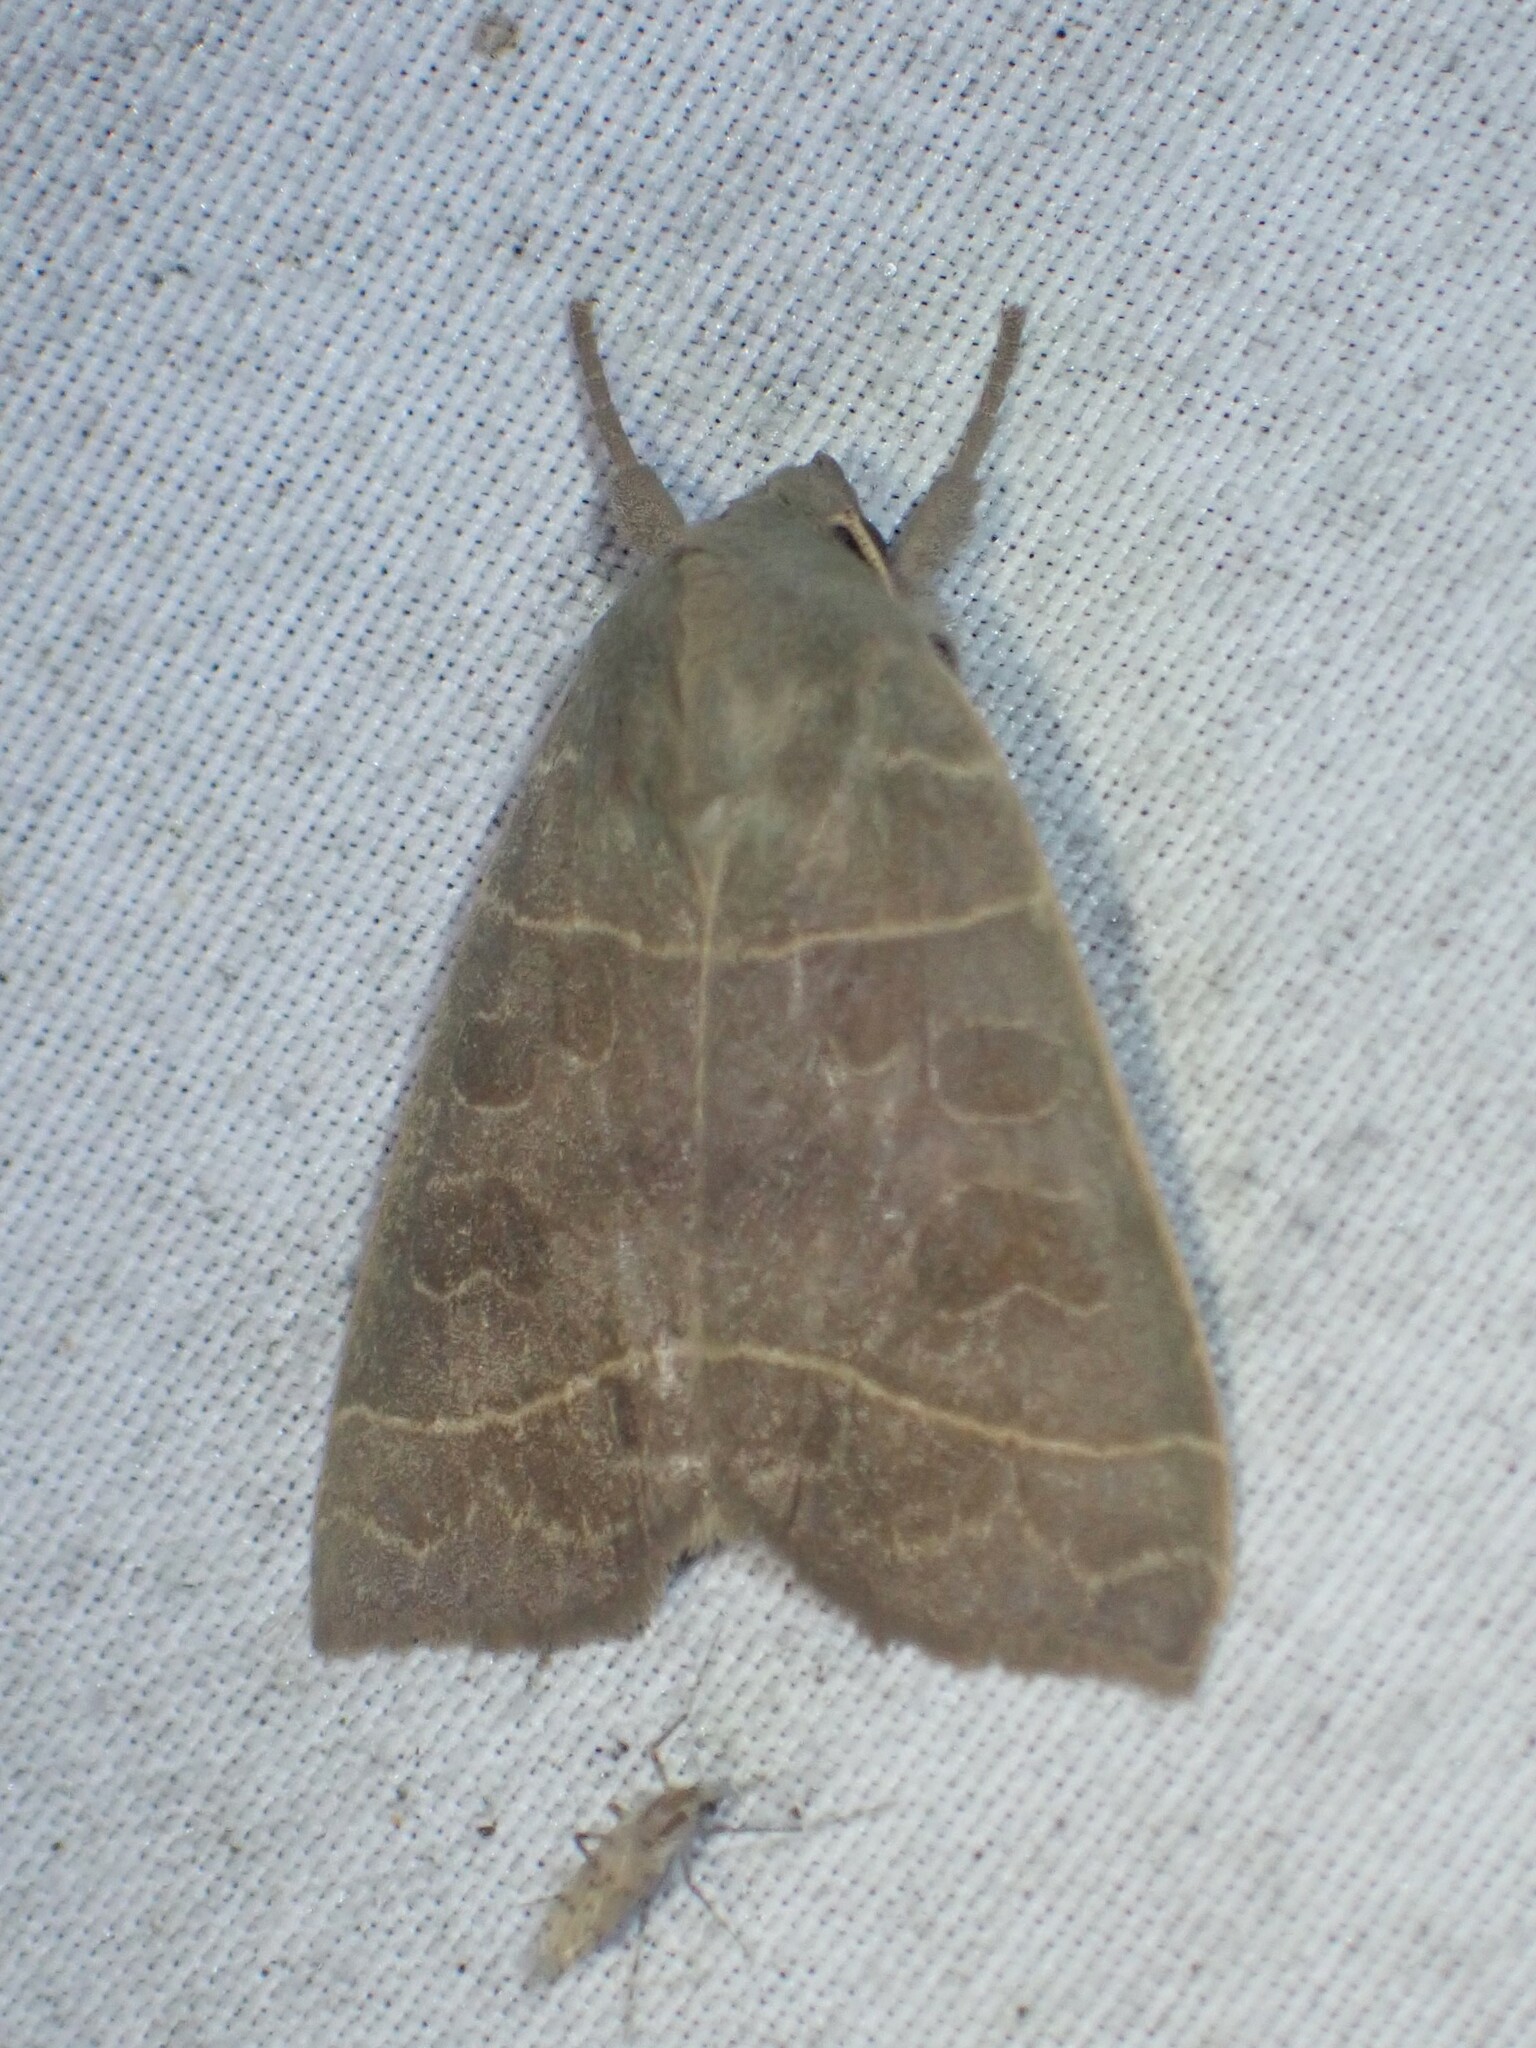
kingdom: Animalia
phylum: Arthropoda
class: Insecta
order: Lepidoptera
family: Noctuidae
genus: Ipimorpha
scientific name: Ipimorpha pleonectusa
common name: Even-lined sallow
